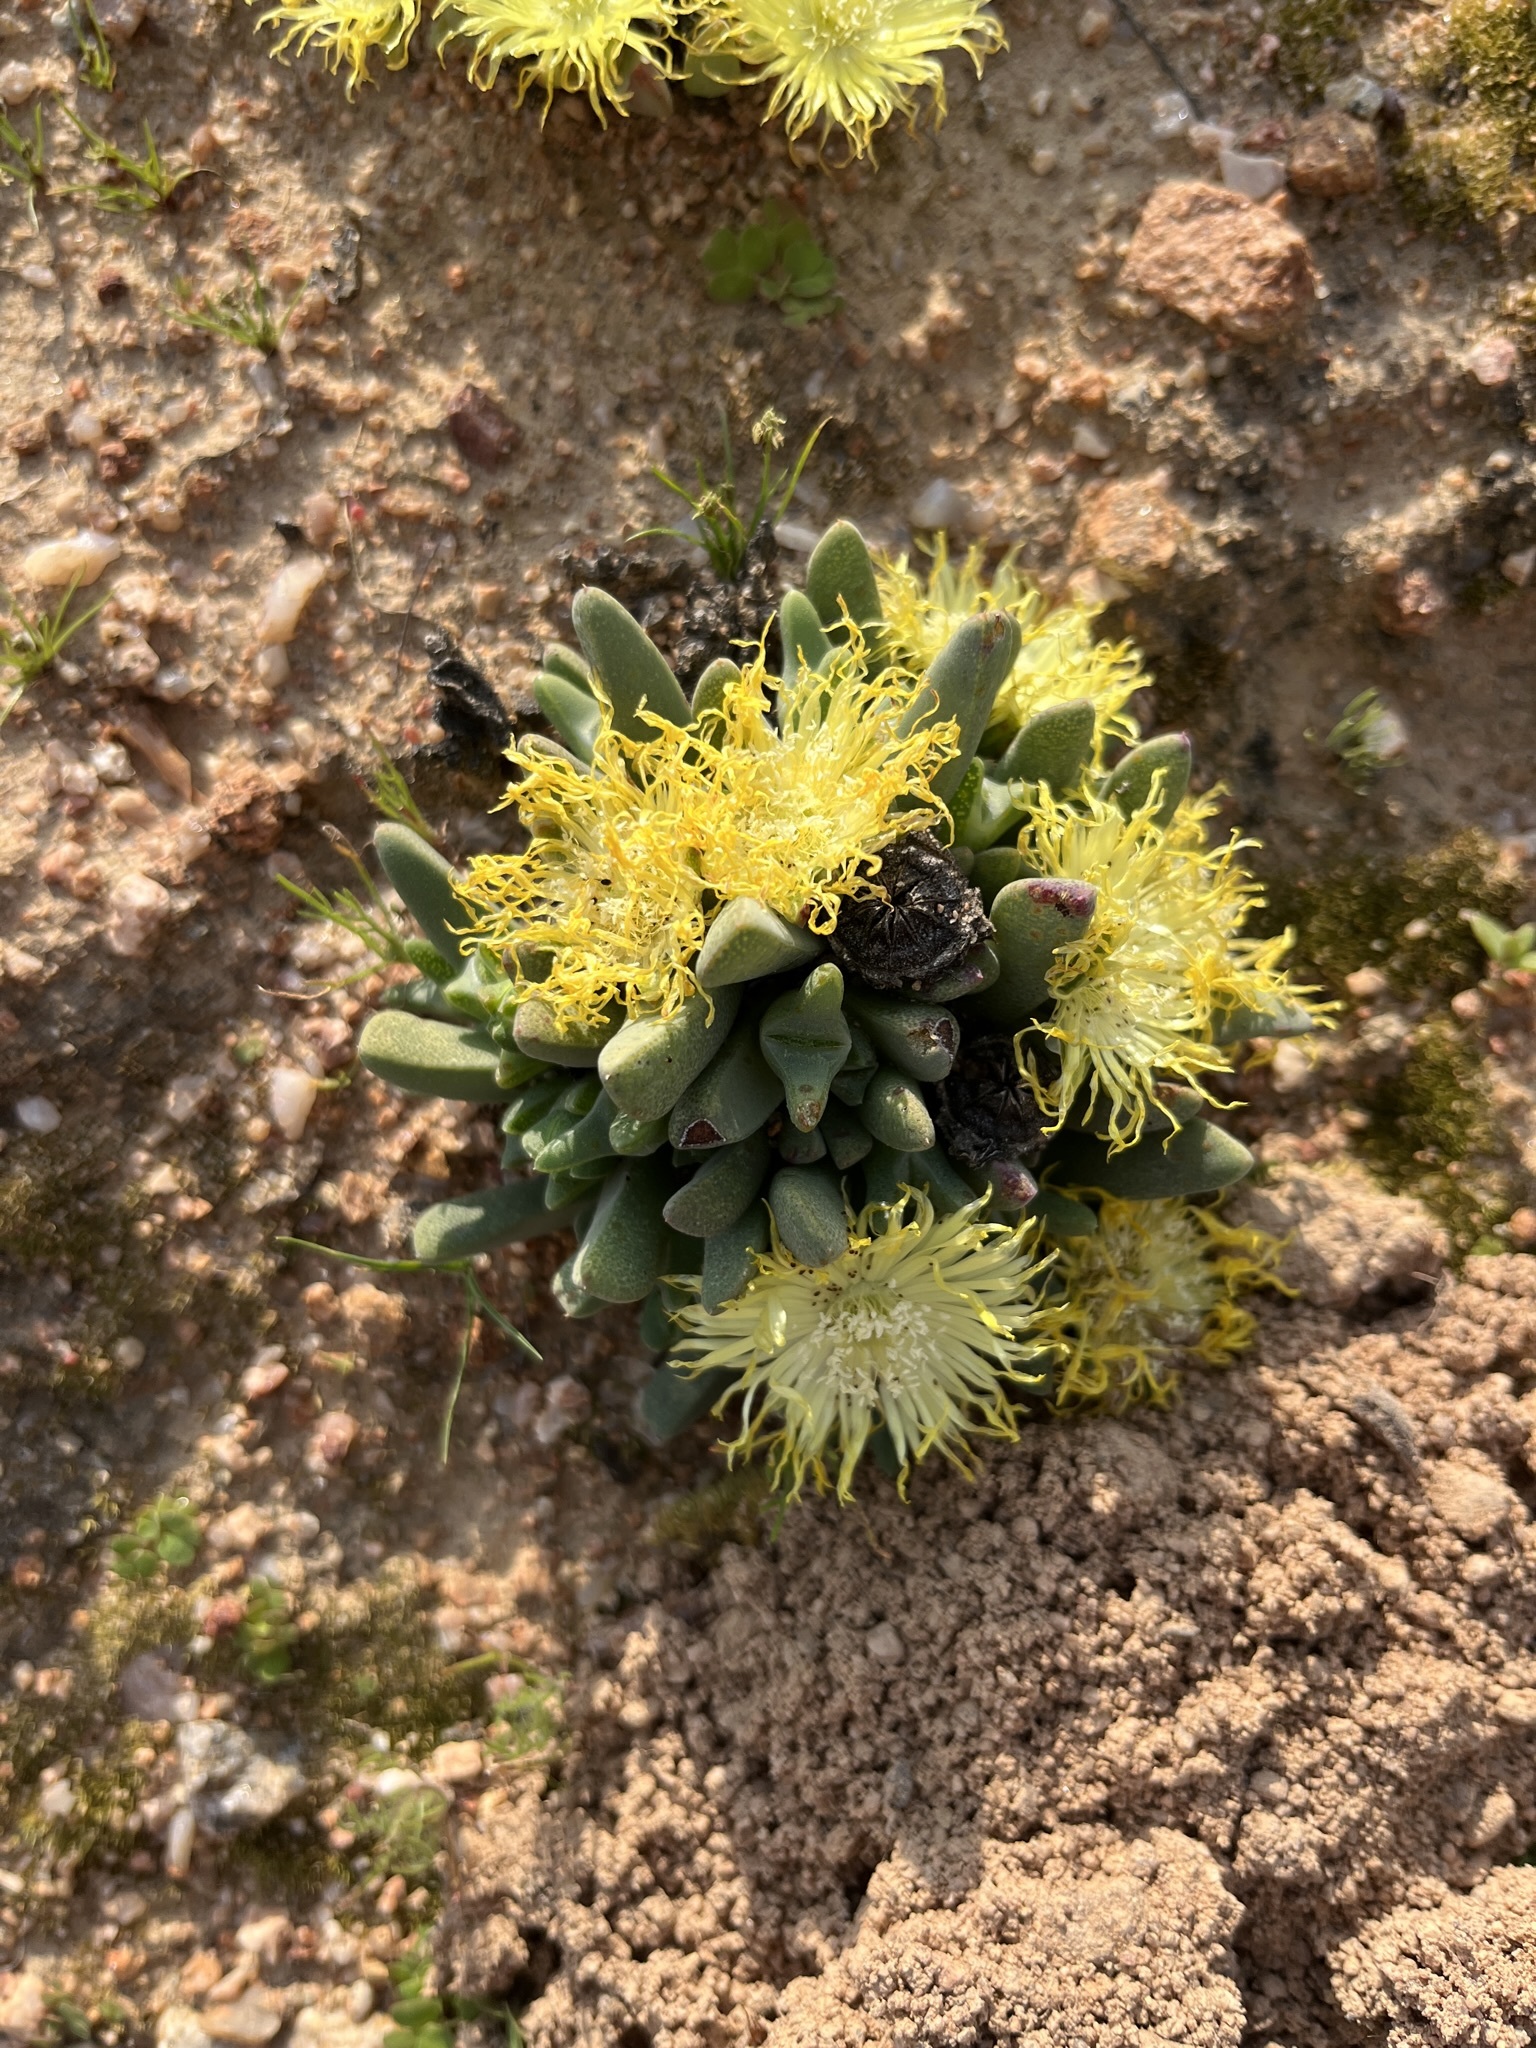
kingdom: Plantae
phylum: Tracheophyta
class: Magnoliopsida
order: Caryophyllales
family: Aizoaceae
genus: Cheiridopsis
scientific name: Cheiridopsis namaquensis
